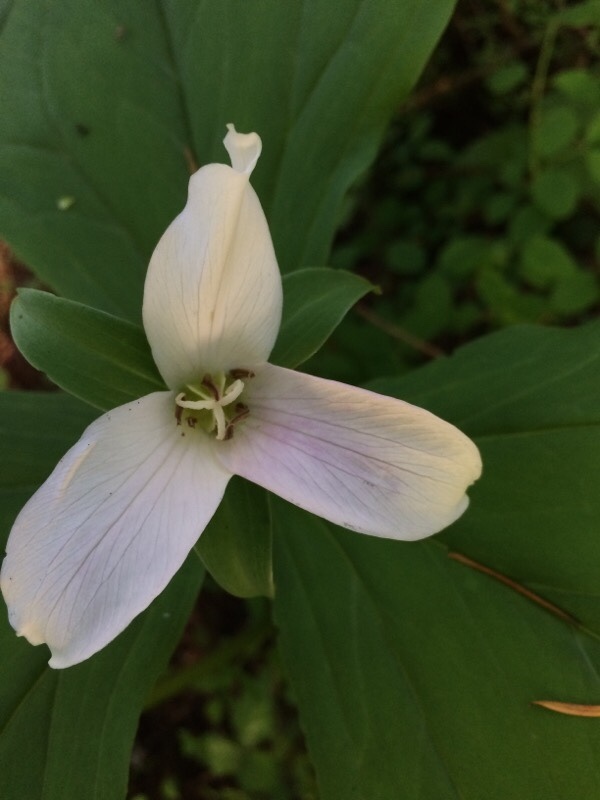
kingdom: Plantae
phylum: Tracheophyta
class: Liliopsida
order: Liliales
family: Melanthiaceae
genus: Trillium
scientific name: Trillium ovatum
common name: Pacific trillium
